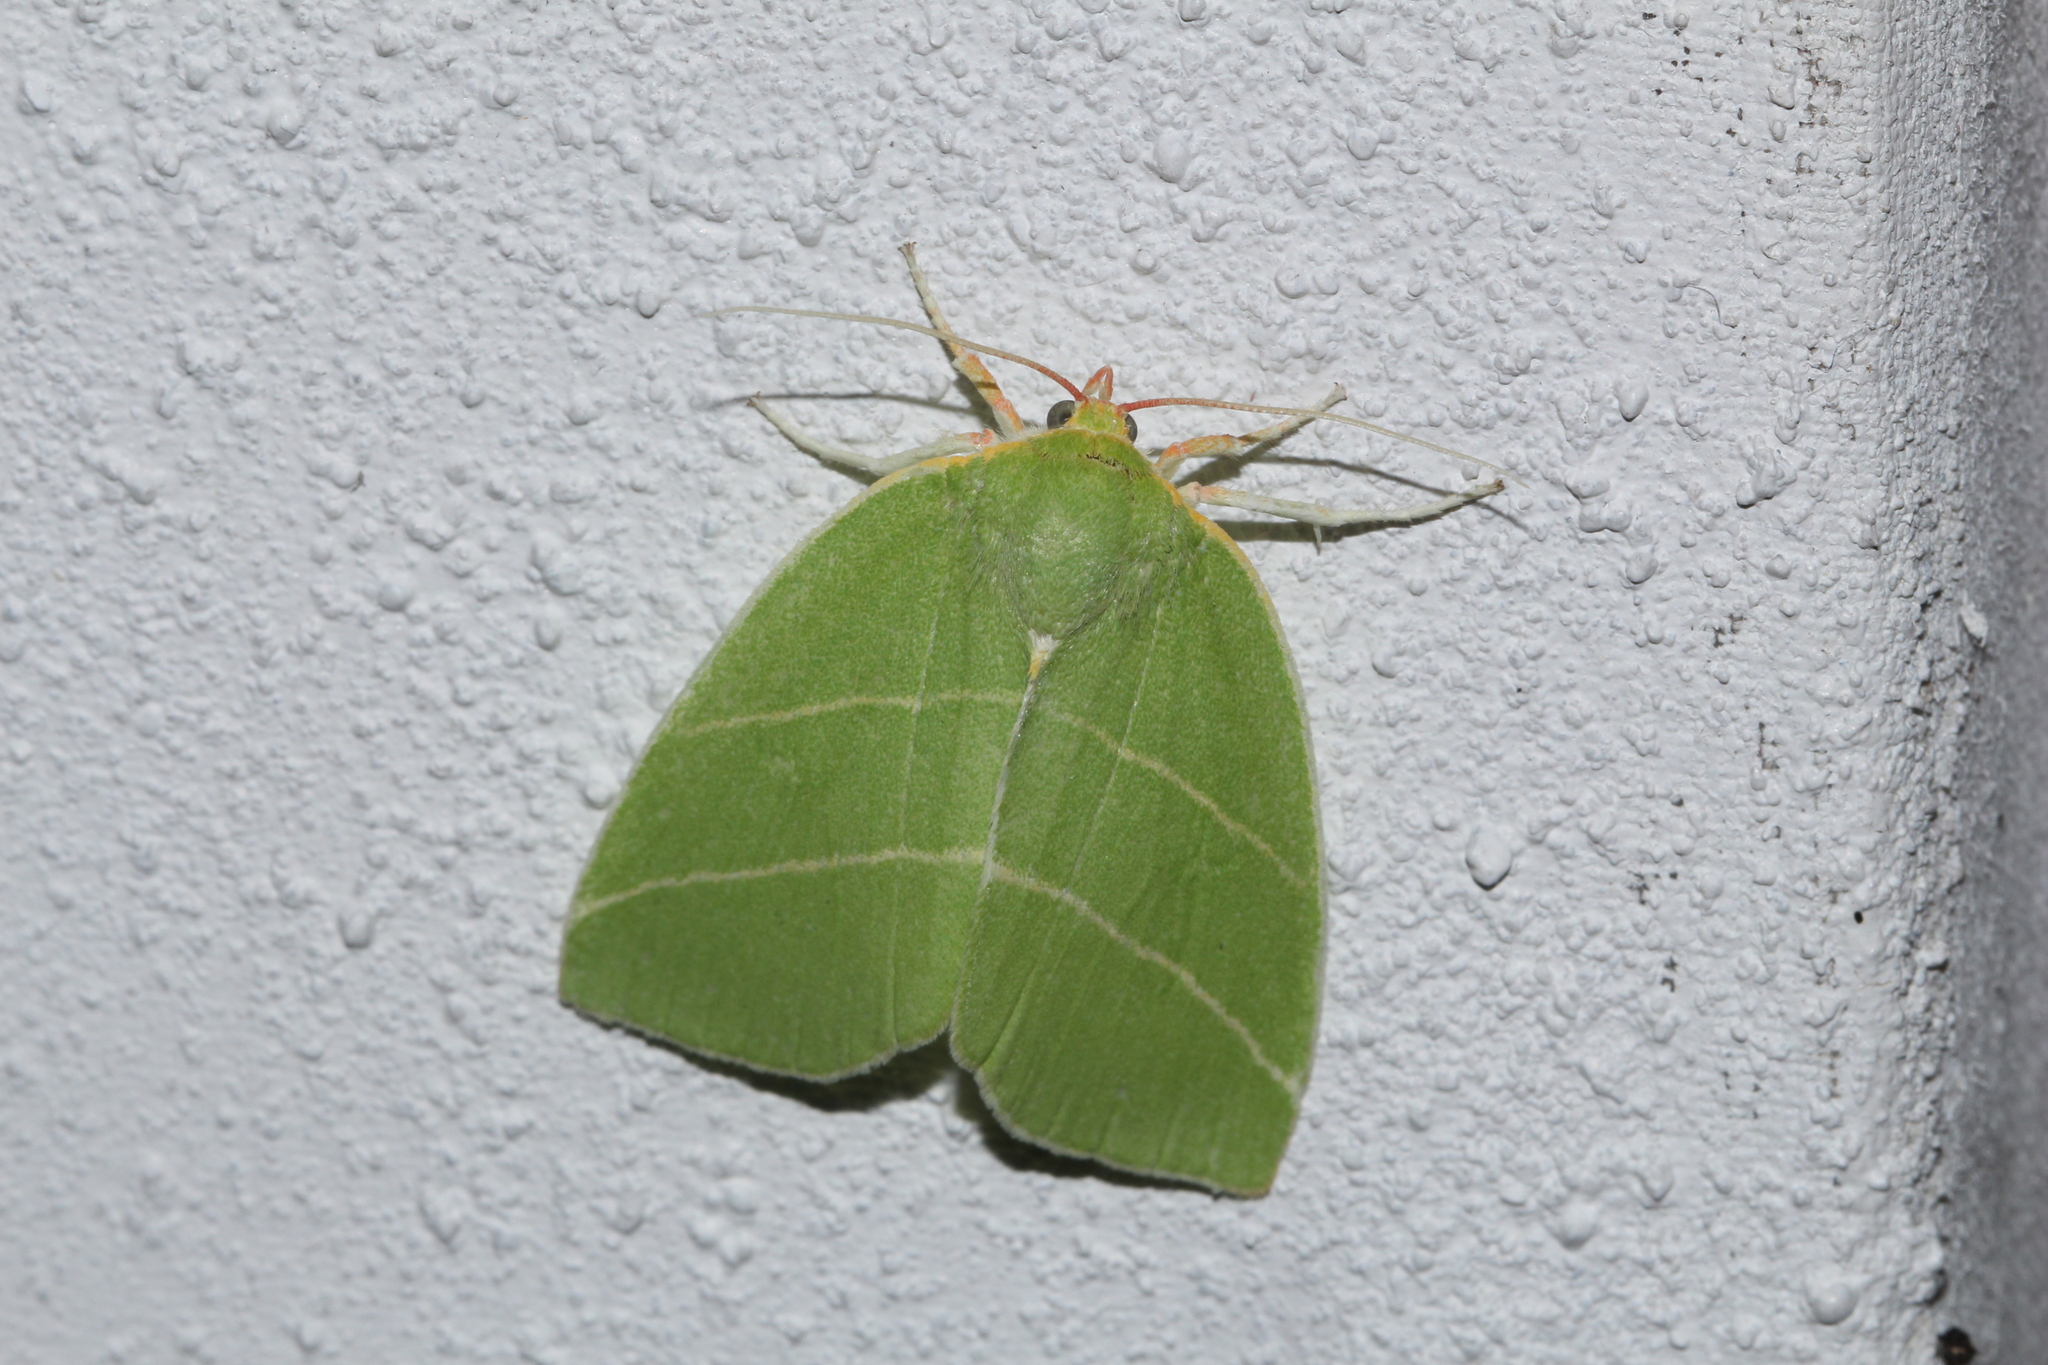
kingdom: Animalia
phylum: Arthropoda
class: Insecta
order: Lepidoptera
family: Nolidae
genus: Bena
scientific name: Bena bicolorana
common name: Scarce silver-lines
